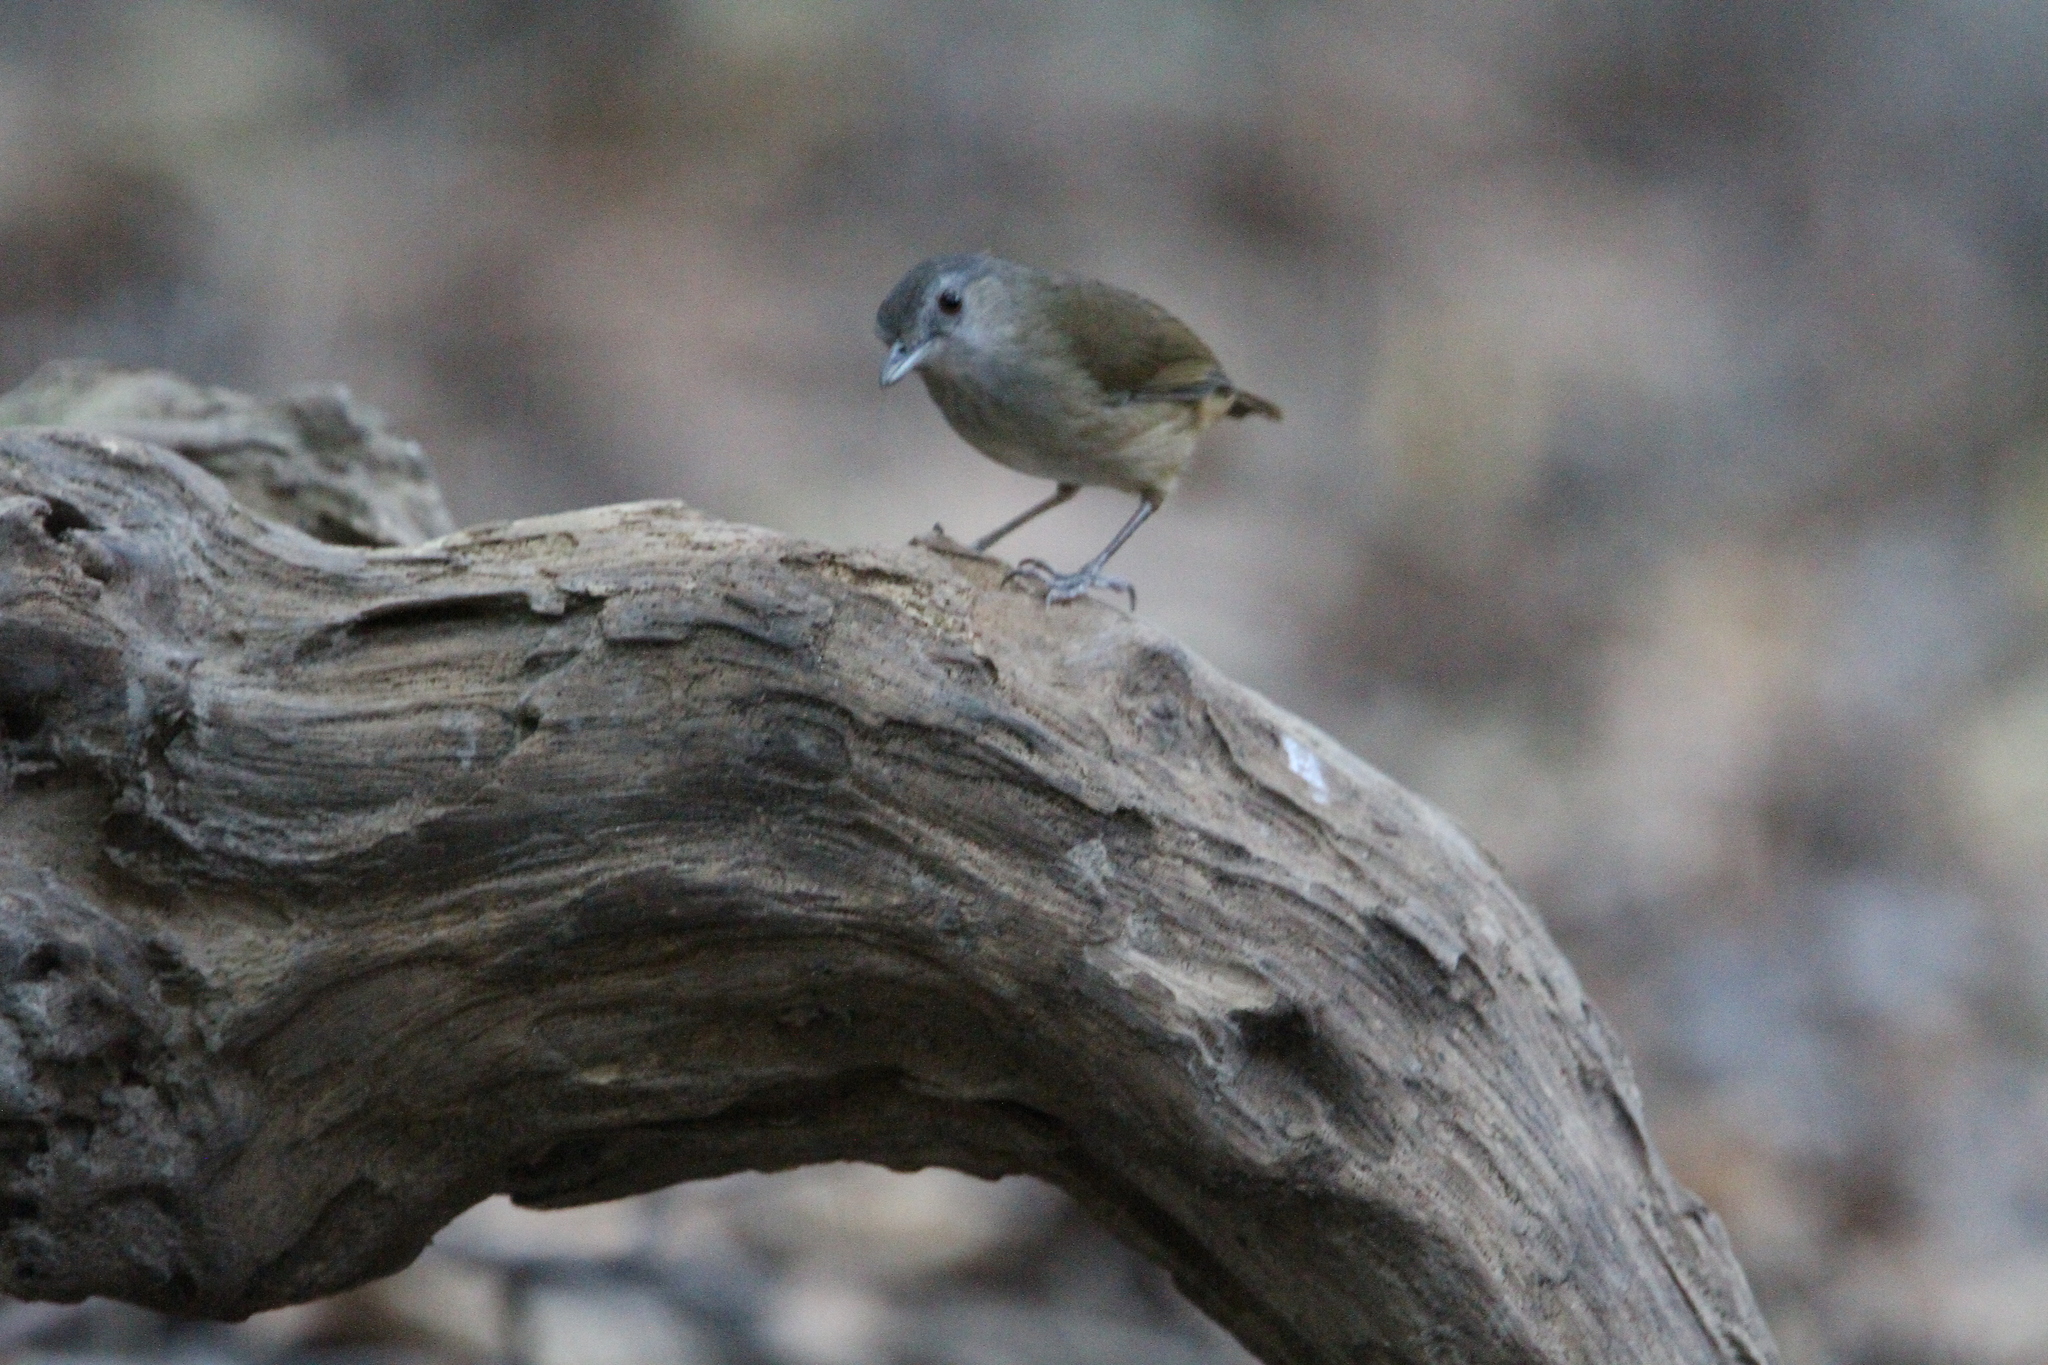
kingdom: Animalia
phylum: Chordata
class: Aves
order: Passeriformes
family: Pellorneidae
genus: Malacocincla
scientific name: Malacocincla sepiaria
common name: Horsfield's babbler
